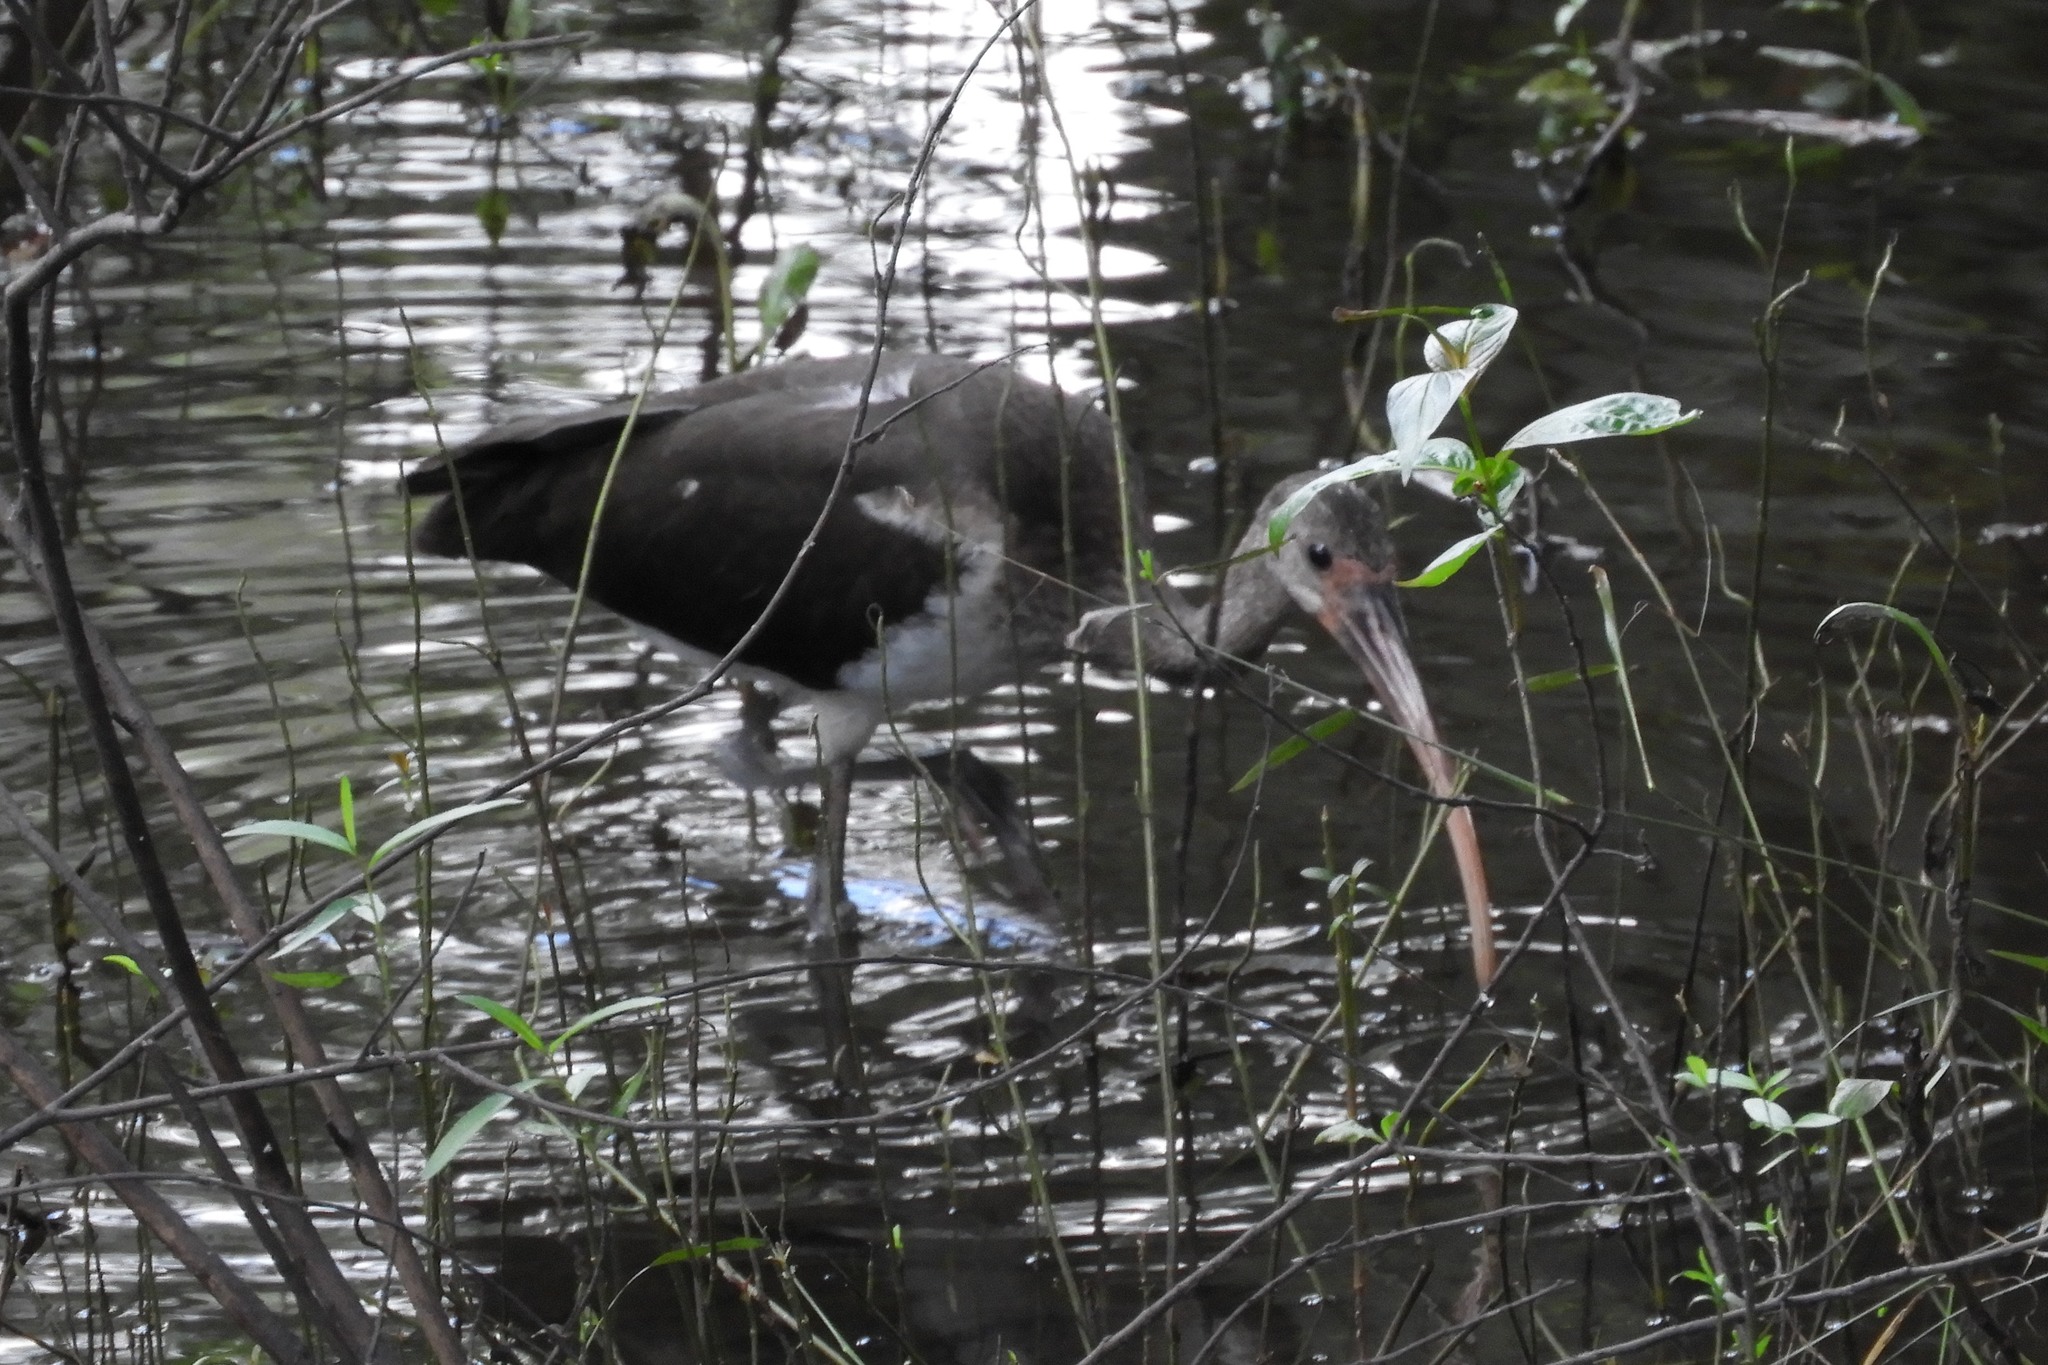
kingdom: Animalia
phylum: Chordata
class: Aves
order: Pelecaniformes
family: Threskiornithidae
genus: Eudocimus
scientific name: Eudocimus albus
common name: White ibis
